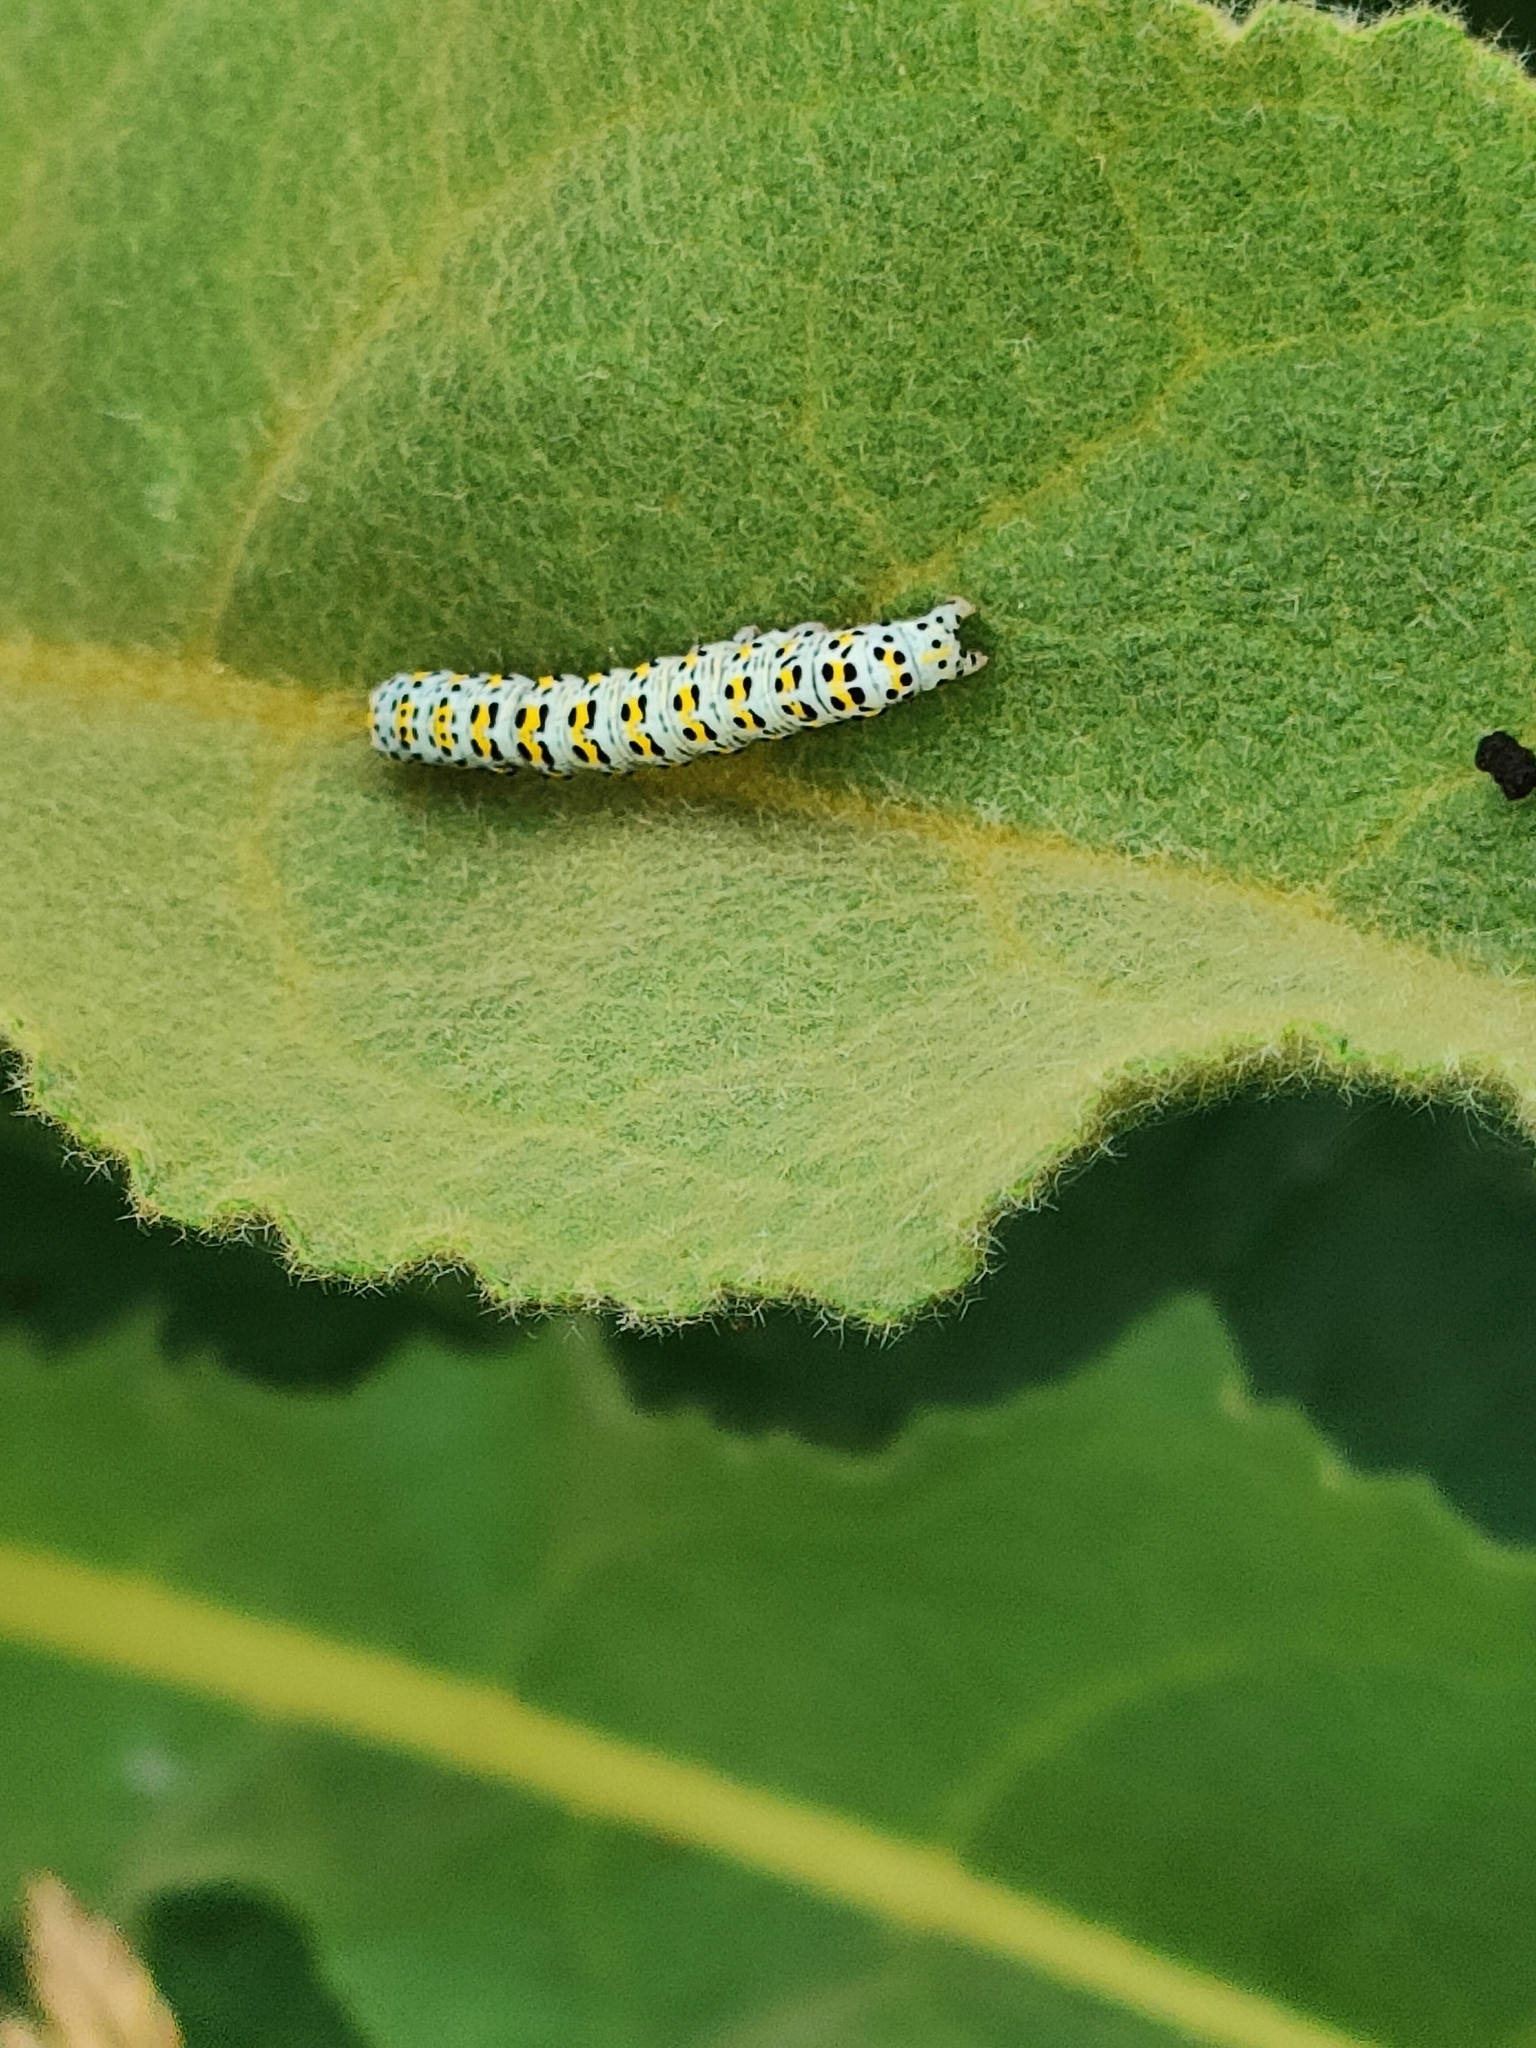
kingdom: Animalia
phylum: Arthropoda
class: Insecta
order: Lepidoptera
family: Noctuidae
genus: Cucullia
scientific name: Cucullia verbasci
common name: Mullein
